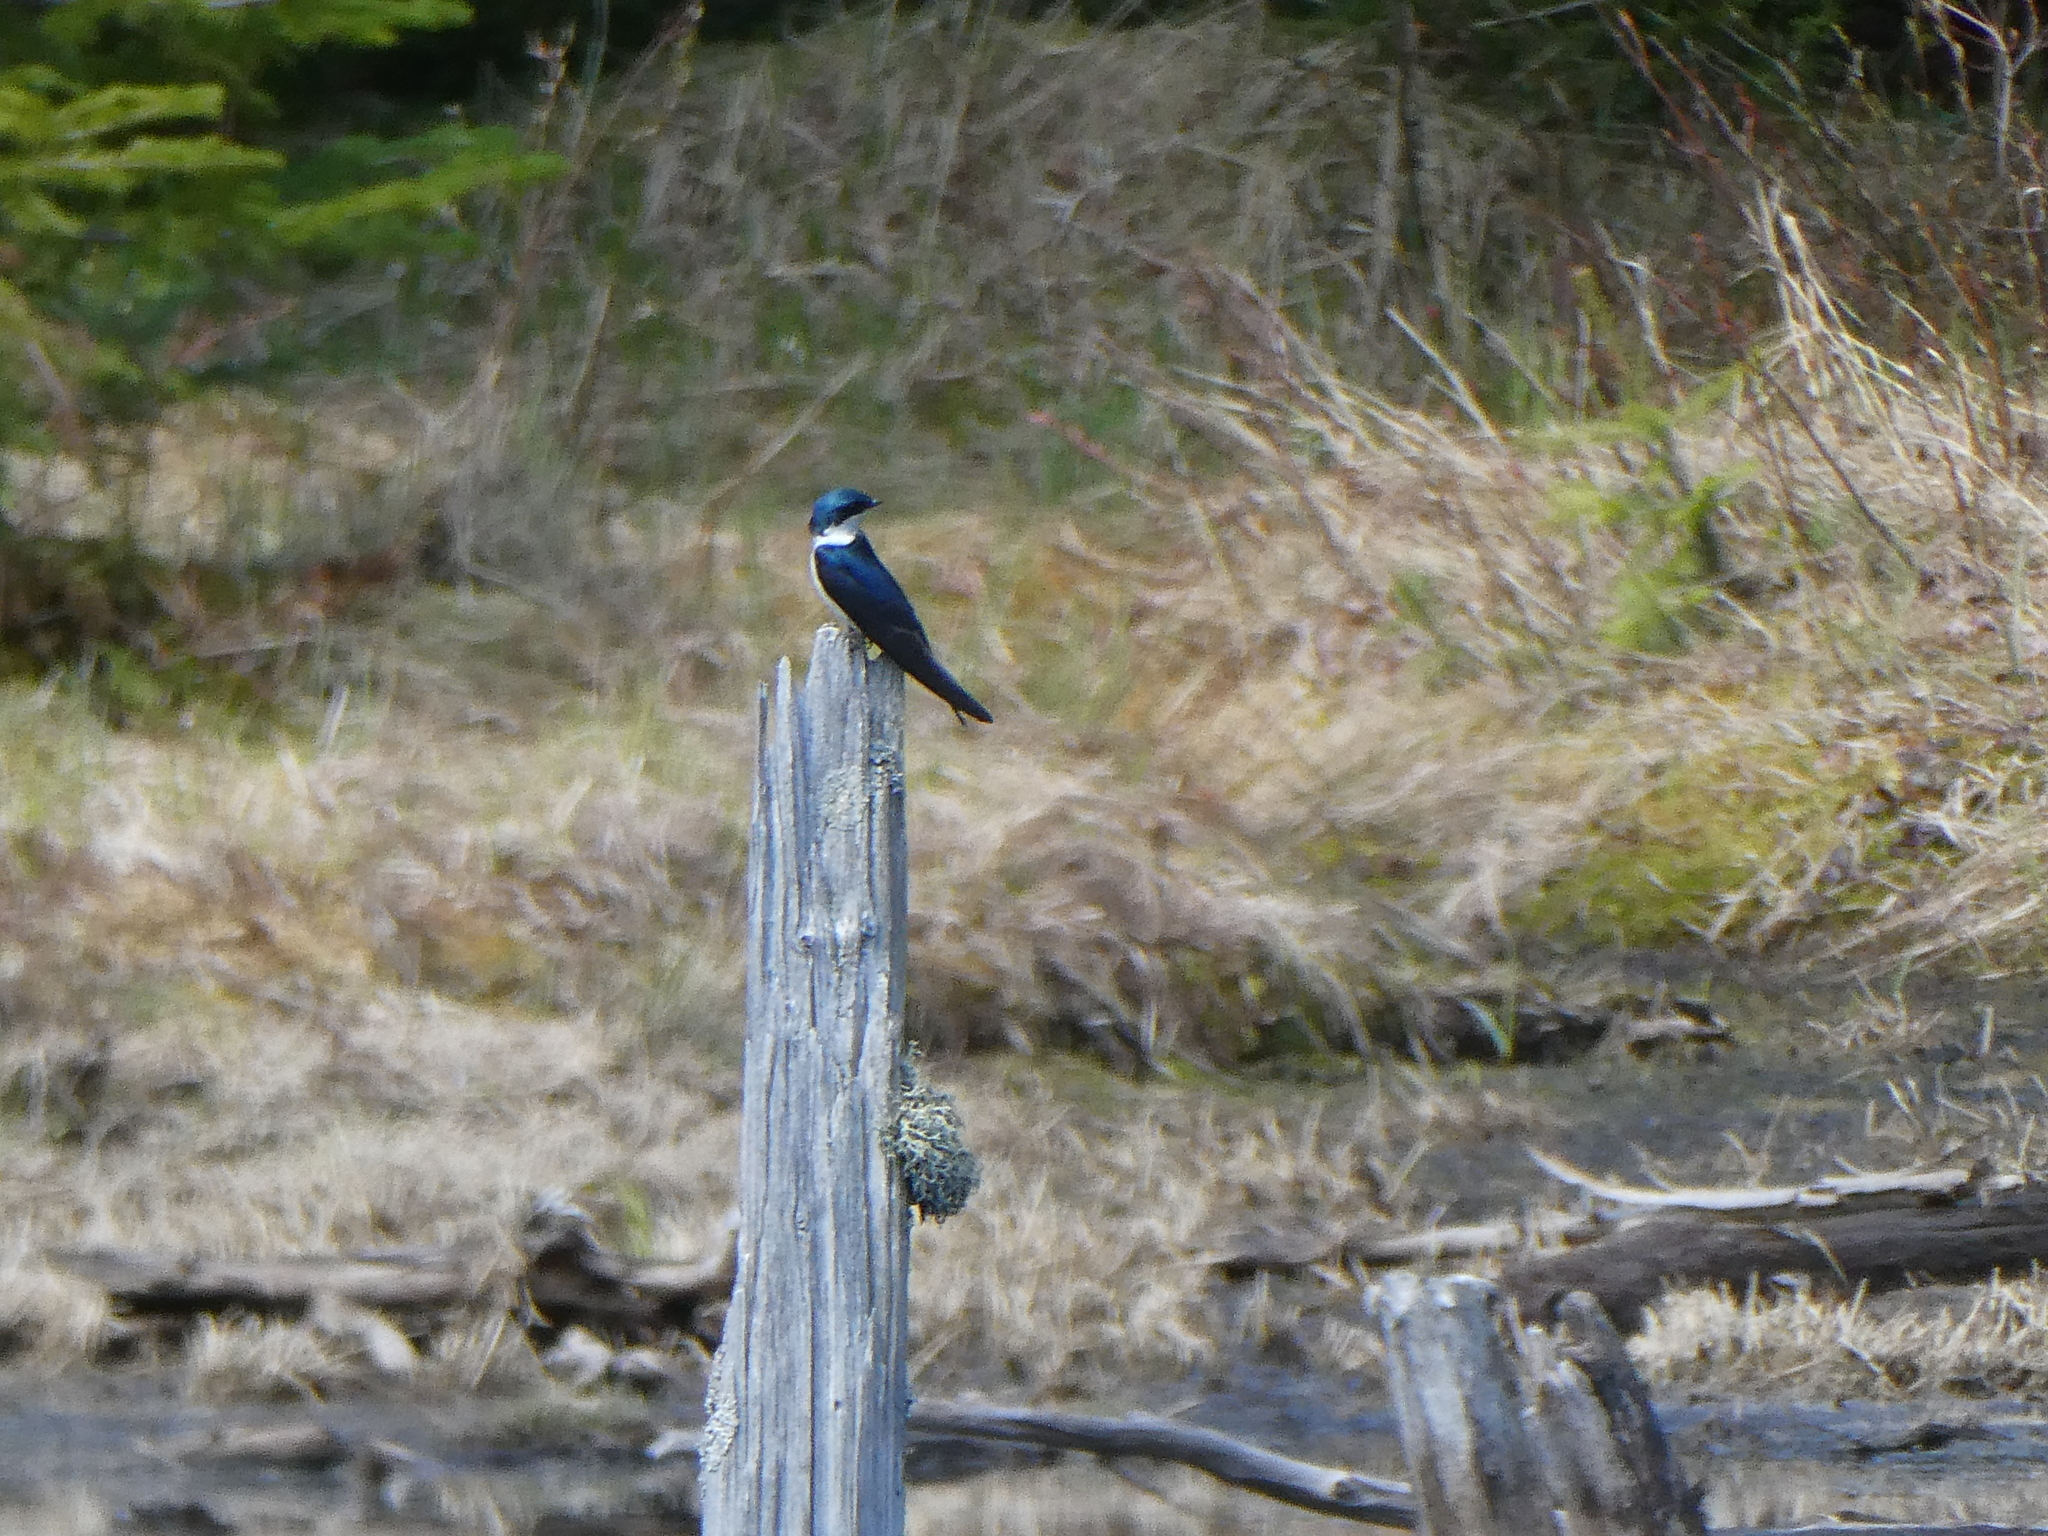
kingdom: Animalia
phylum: Chordata
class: Aves
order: Passeriformes
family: Hirundinidae
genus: Tachycineta
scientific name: Tachycineta bicolor
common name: Tree swallow
